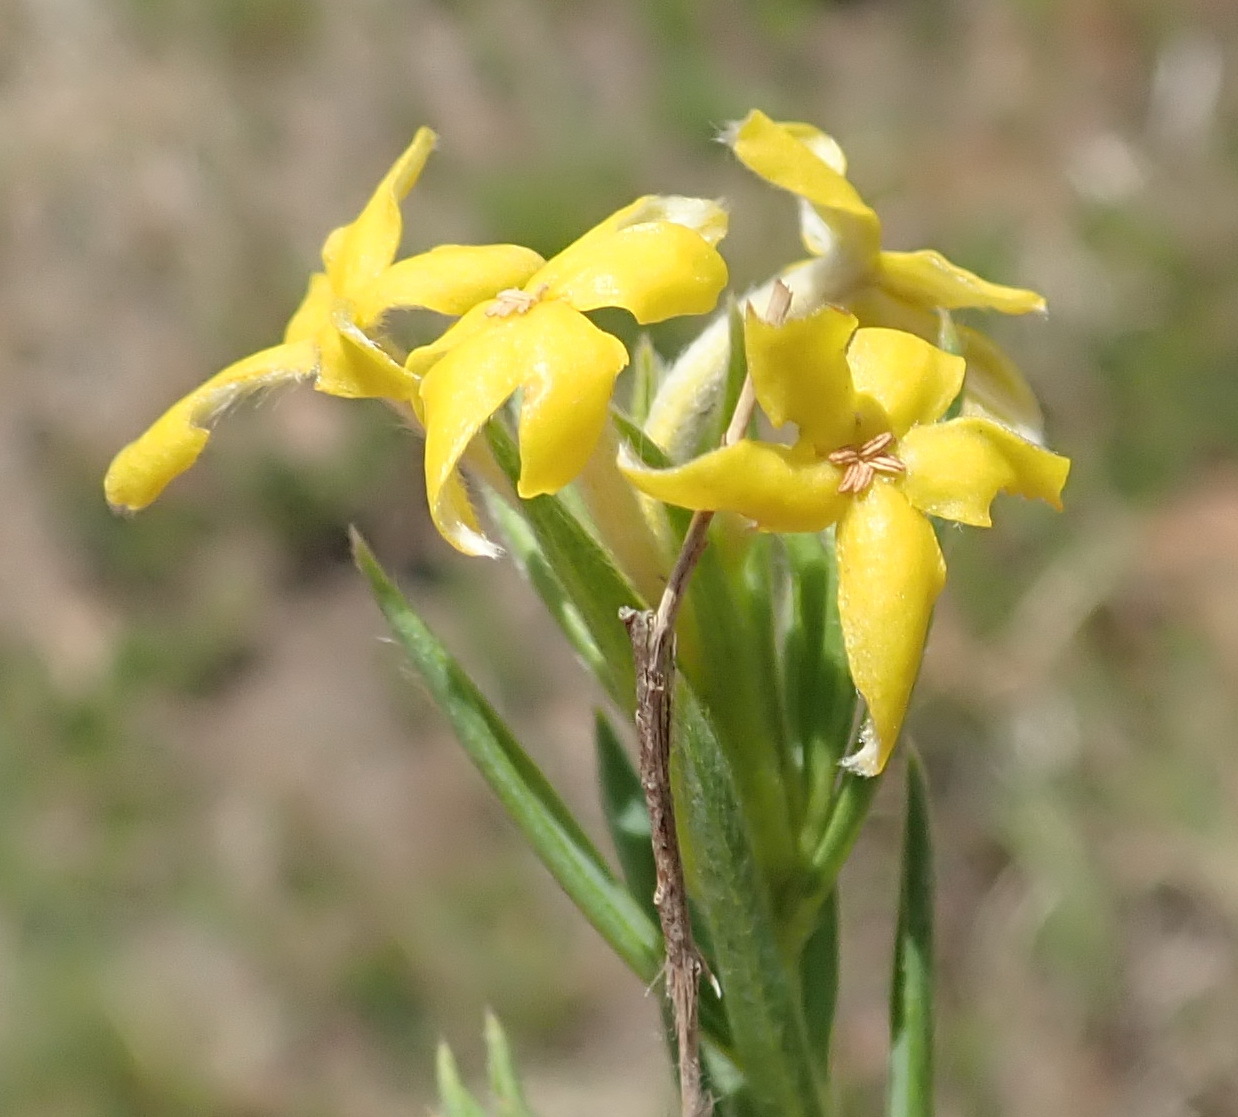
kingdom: Plantae
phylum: Tracheophyta
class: Magnoliopsida
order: Malvales
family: Thymelaeaceae
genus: Gnidia
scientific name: Gnidia caffra
